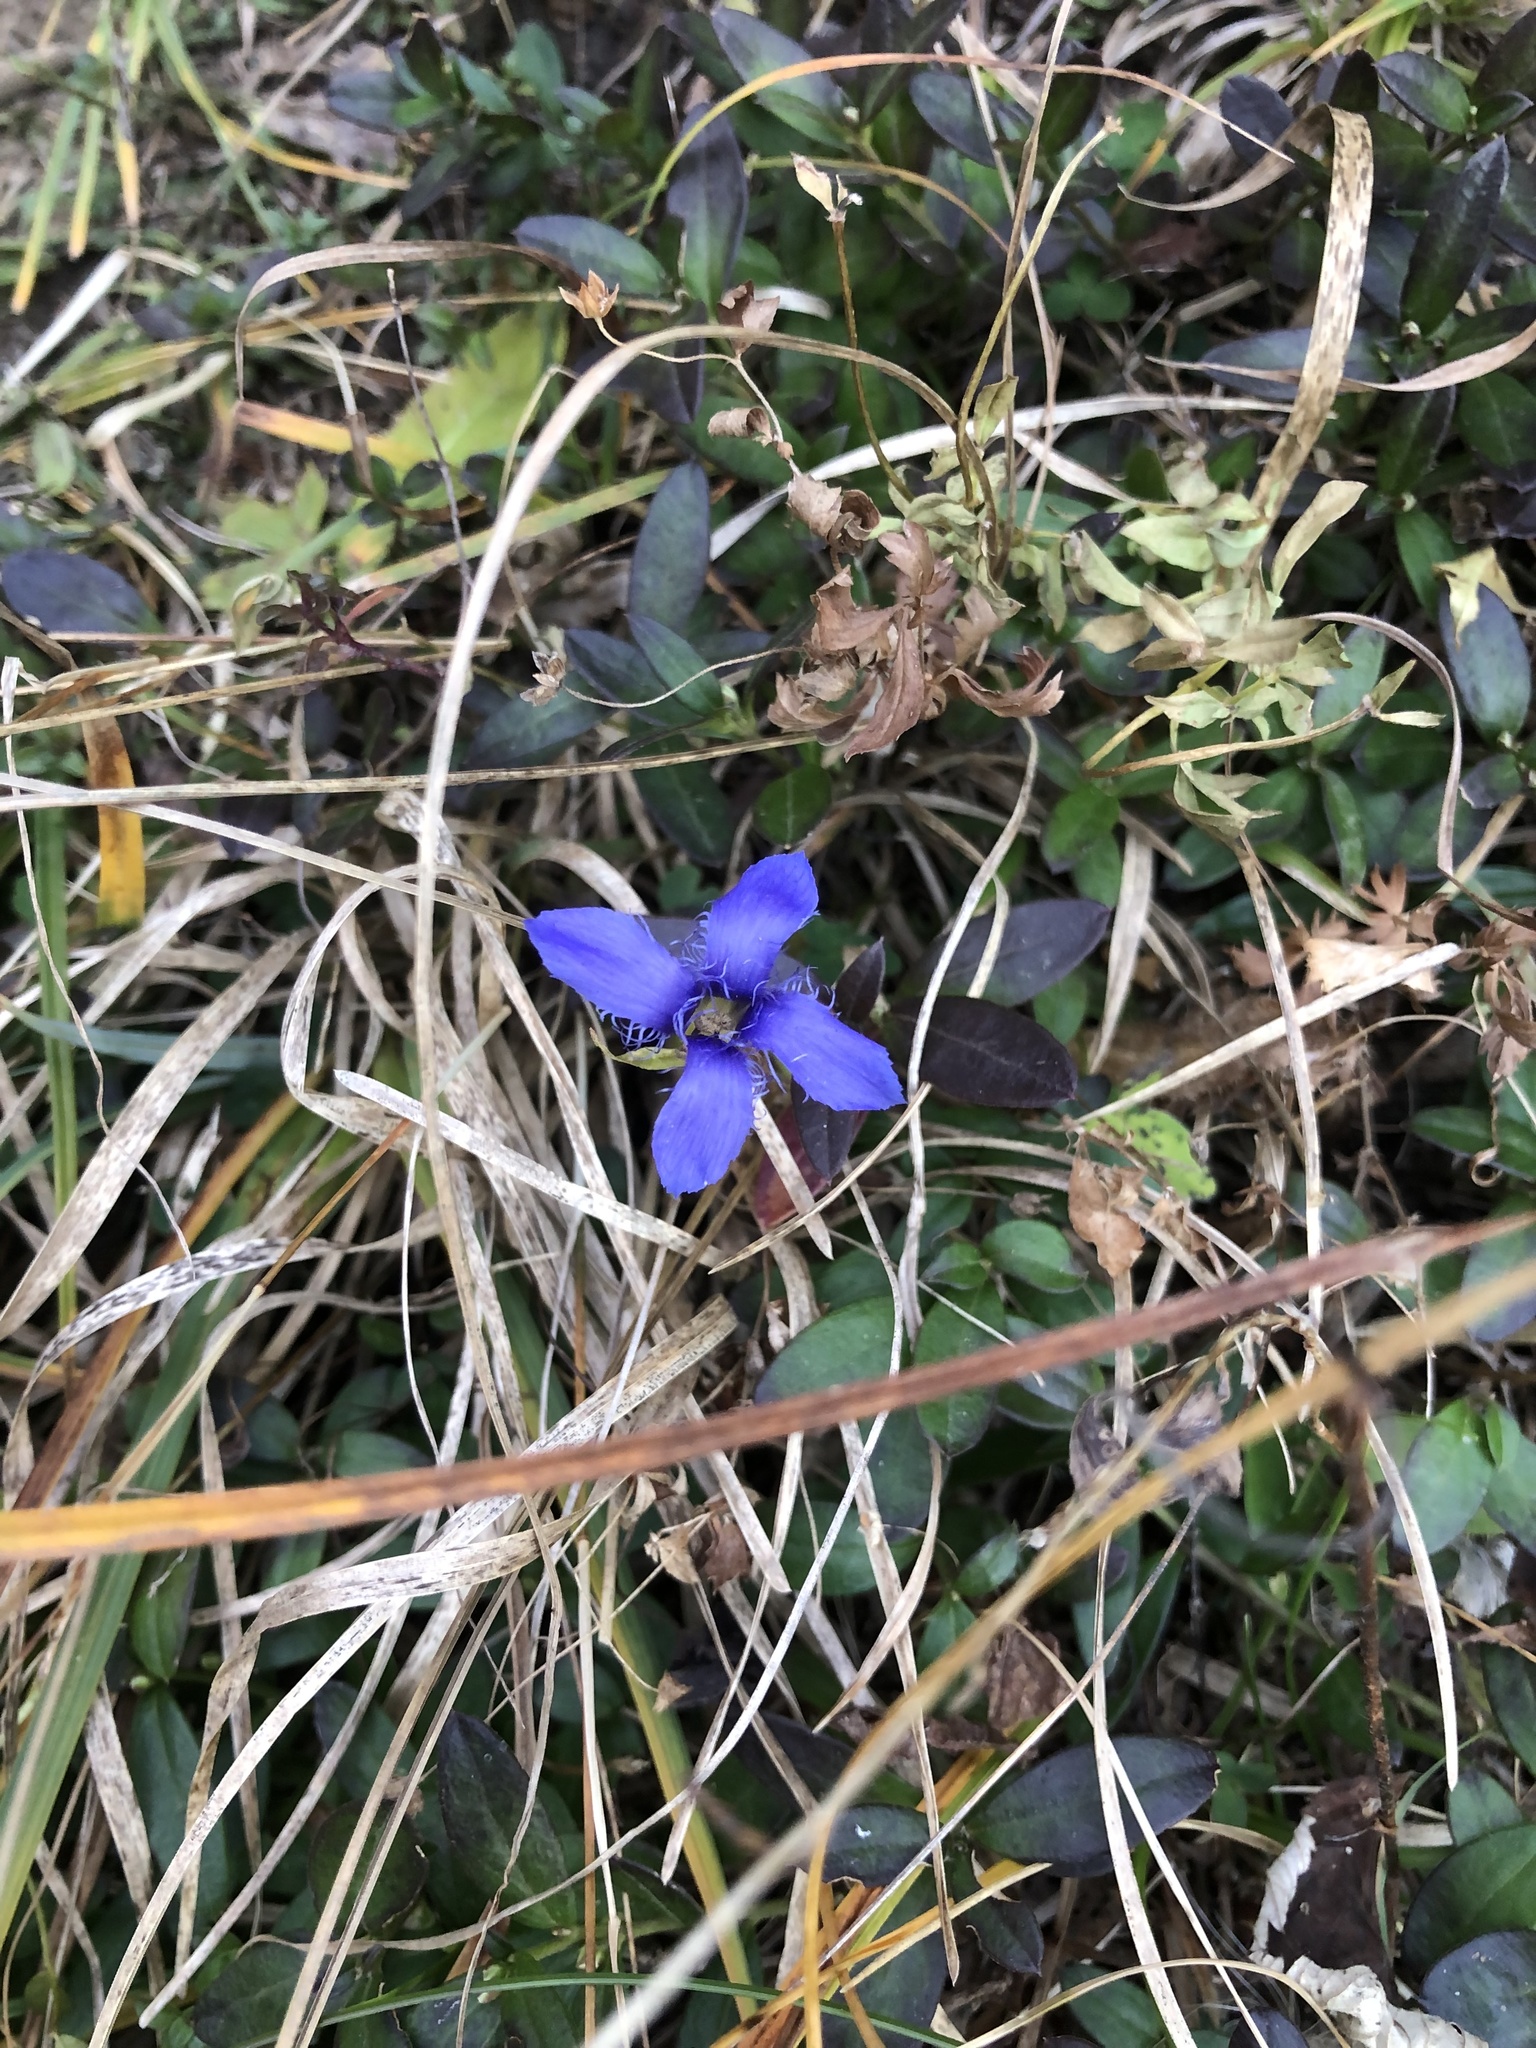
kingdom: Plantae
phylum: Tracheophyta
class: Magnoliopsida
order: Gentianales
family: Gentianaceae
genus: Gentianopsis
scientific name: Gentianopsis ciliata
